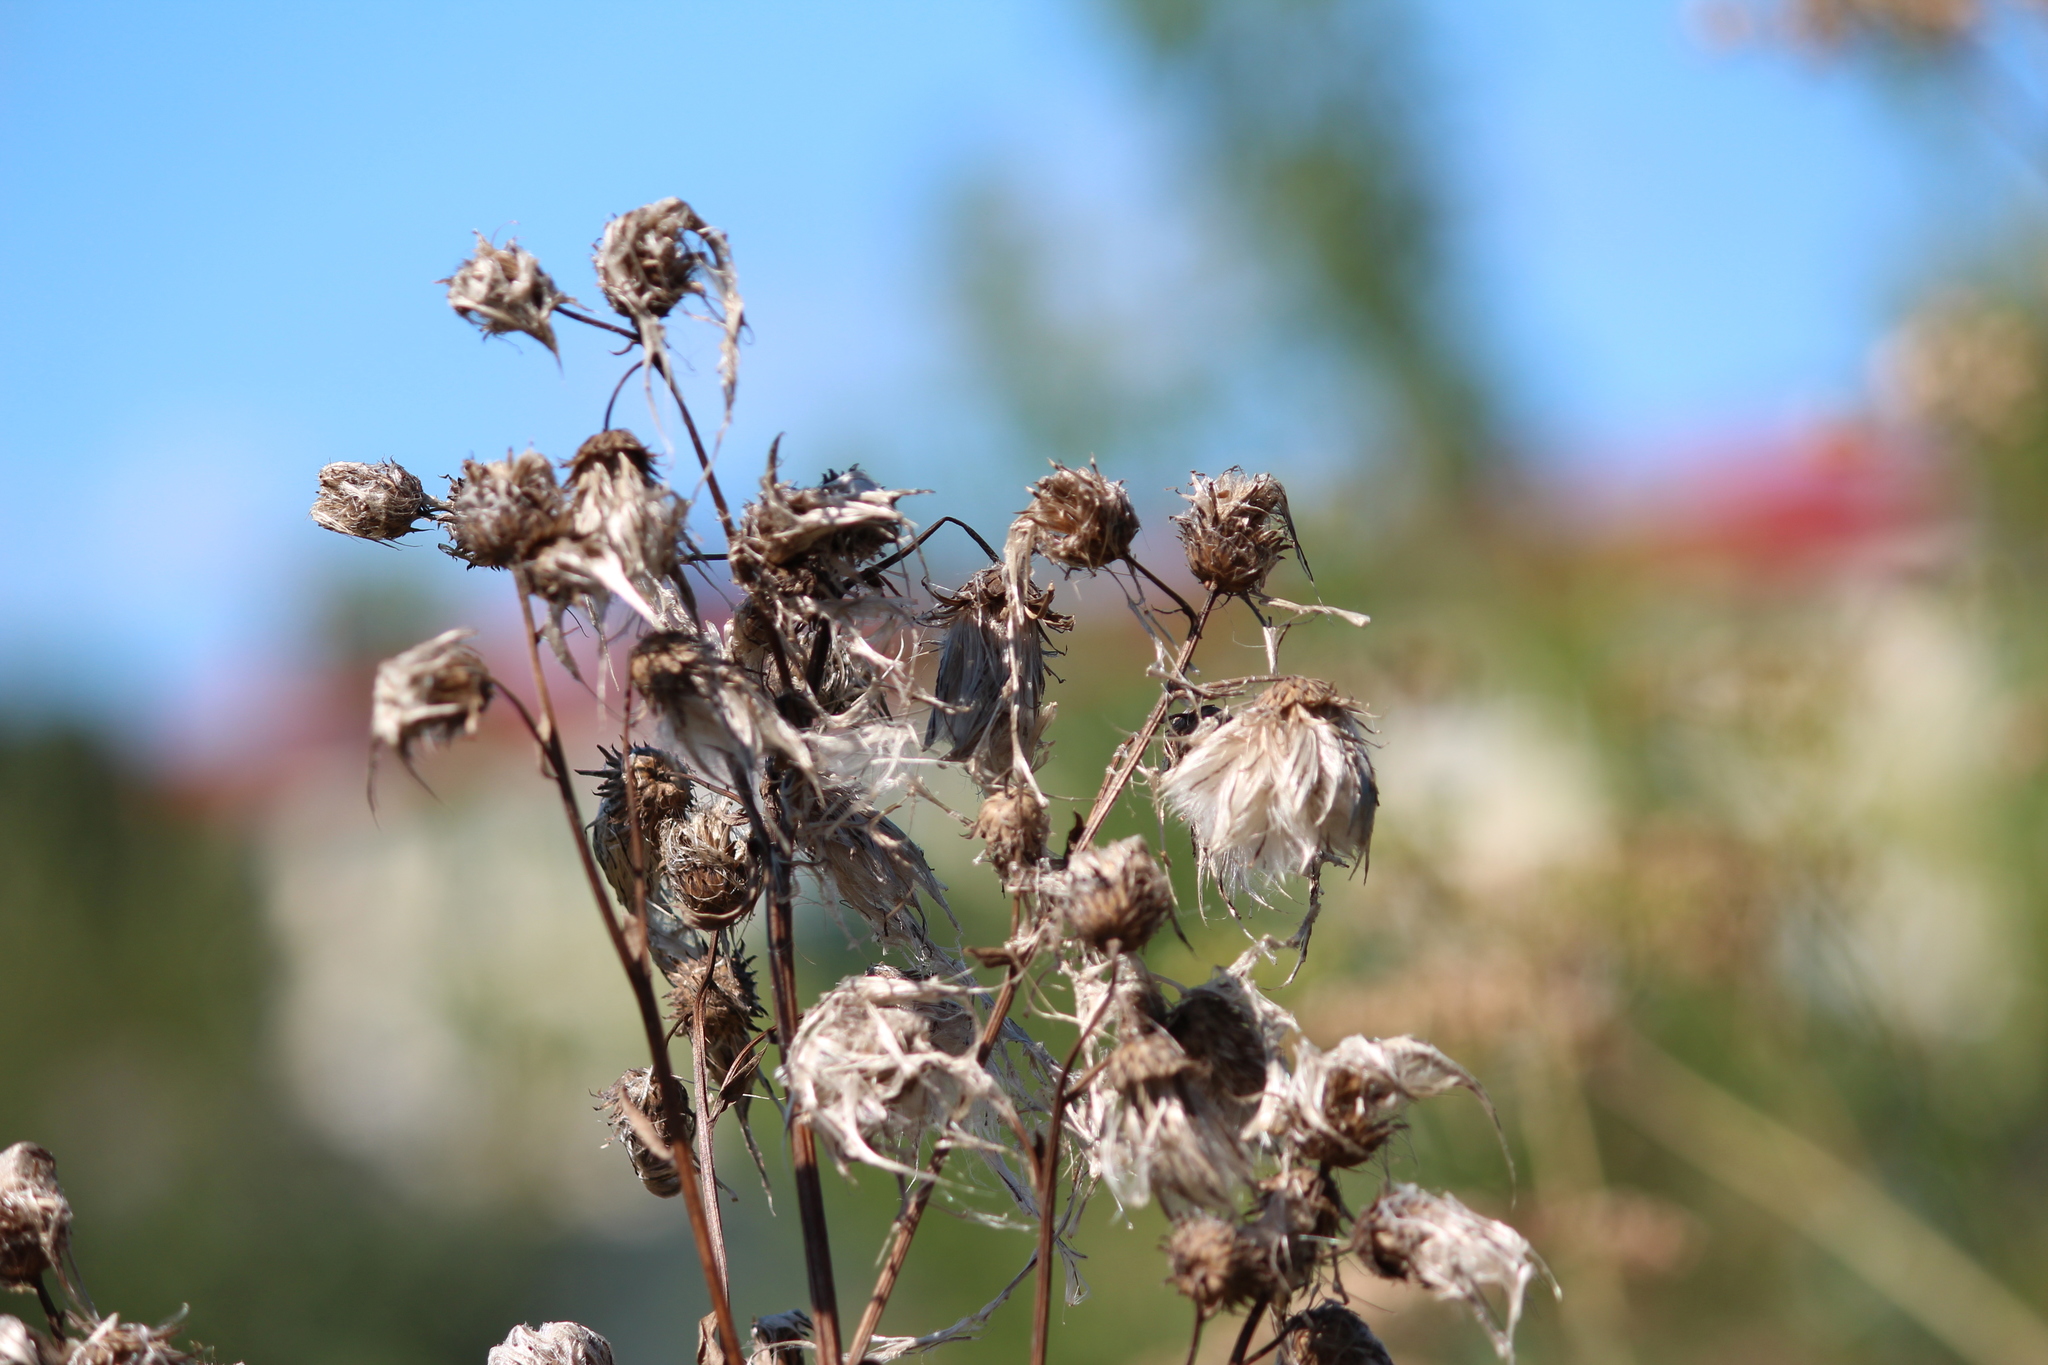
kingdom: Plantae
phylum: Tracheophyta
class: Magnoliopsida
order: Asterales
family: Asteraceae
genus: Cirsium
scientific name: Cirsium arvense
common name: Creeping thistle
